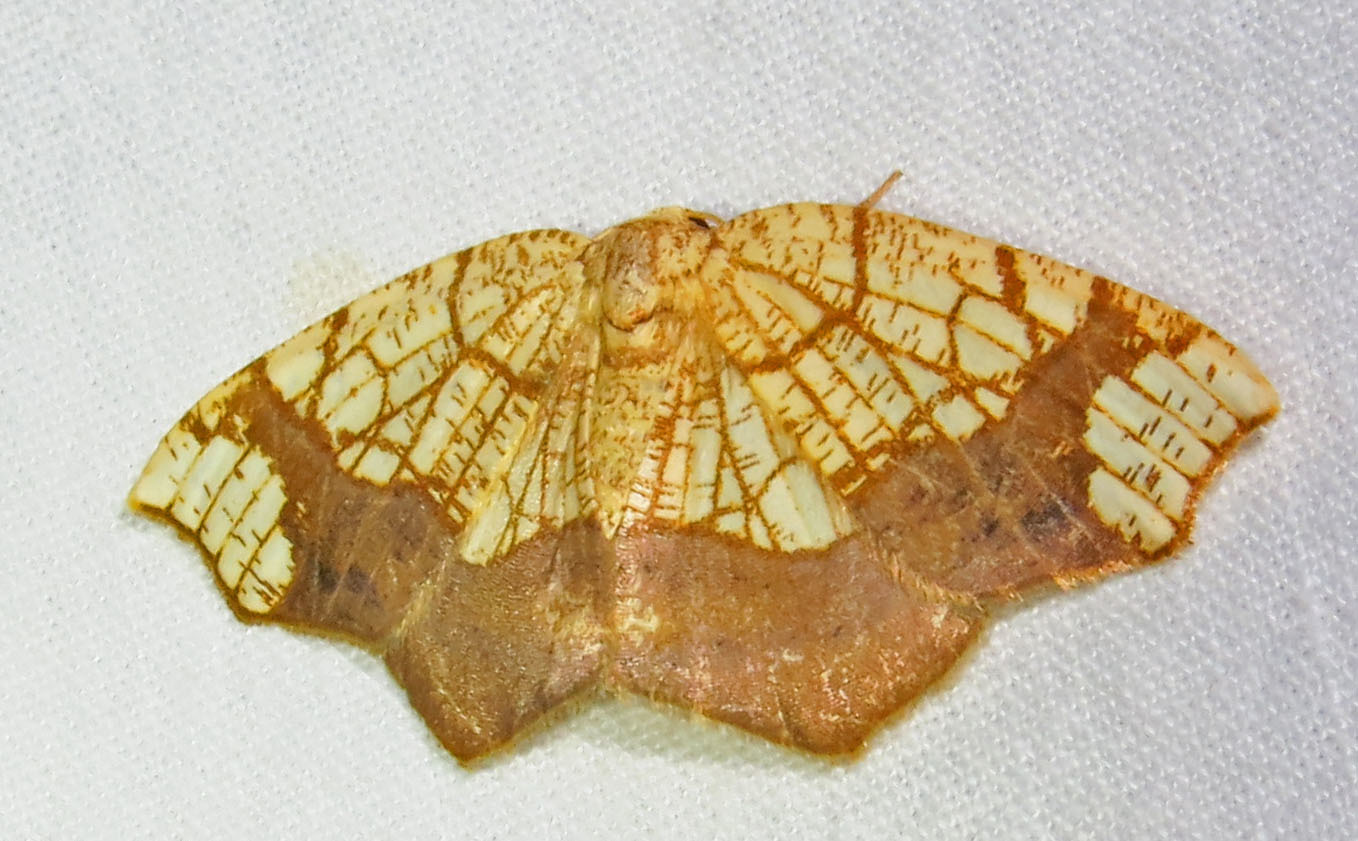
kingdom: Animalia
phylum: Arthropoda
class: Insecta
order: Lepidoptera
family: Geometridae
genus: Nematocampa
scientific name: Nematocampa resistaria
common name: Horned spanworm moth
